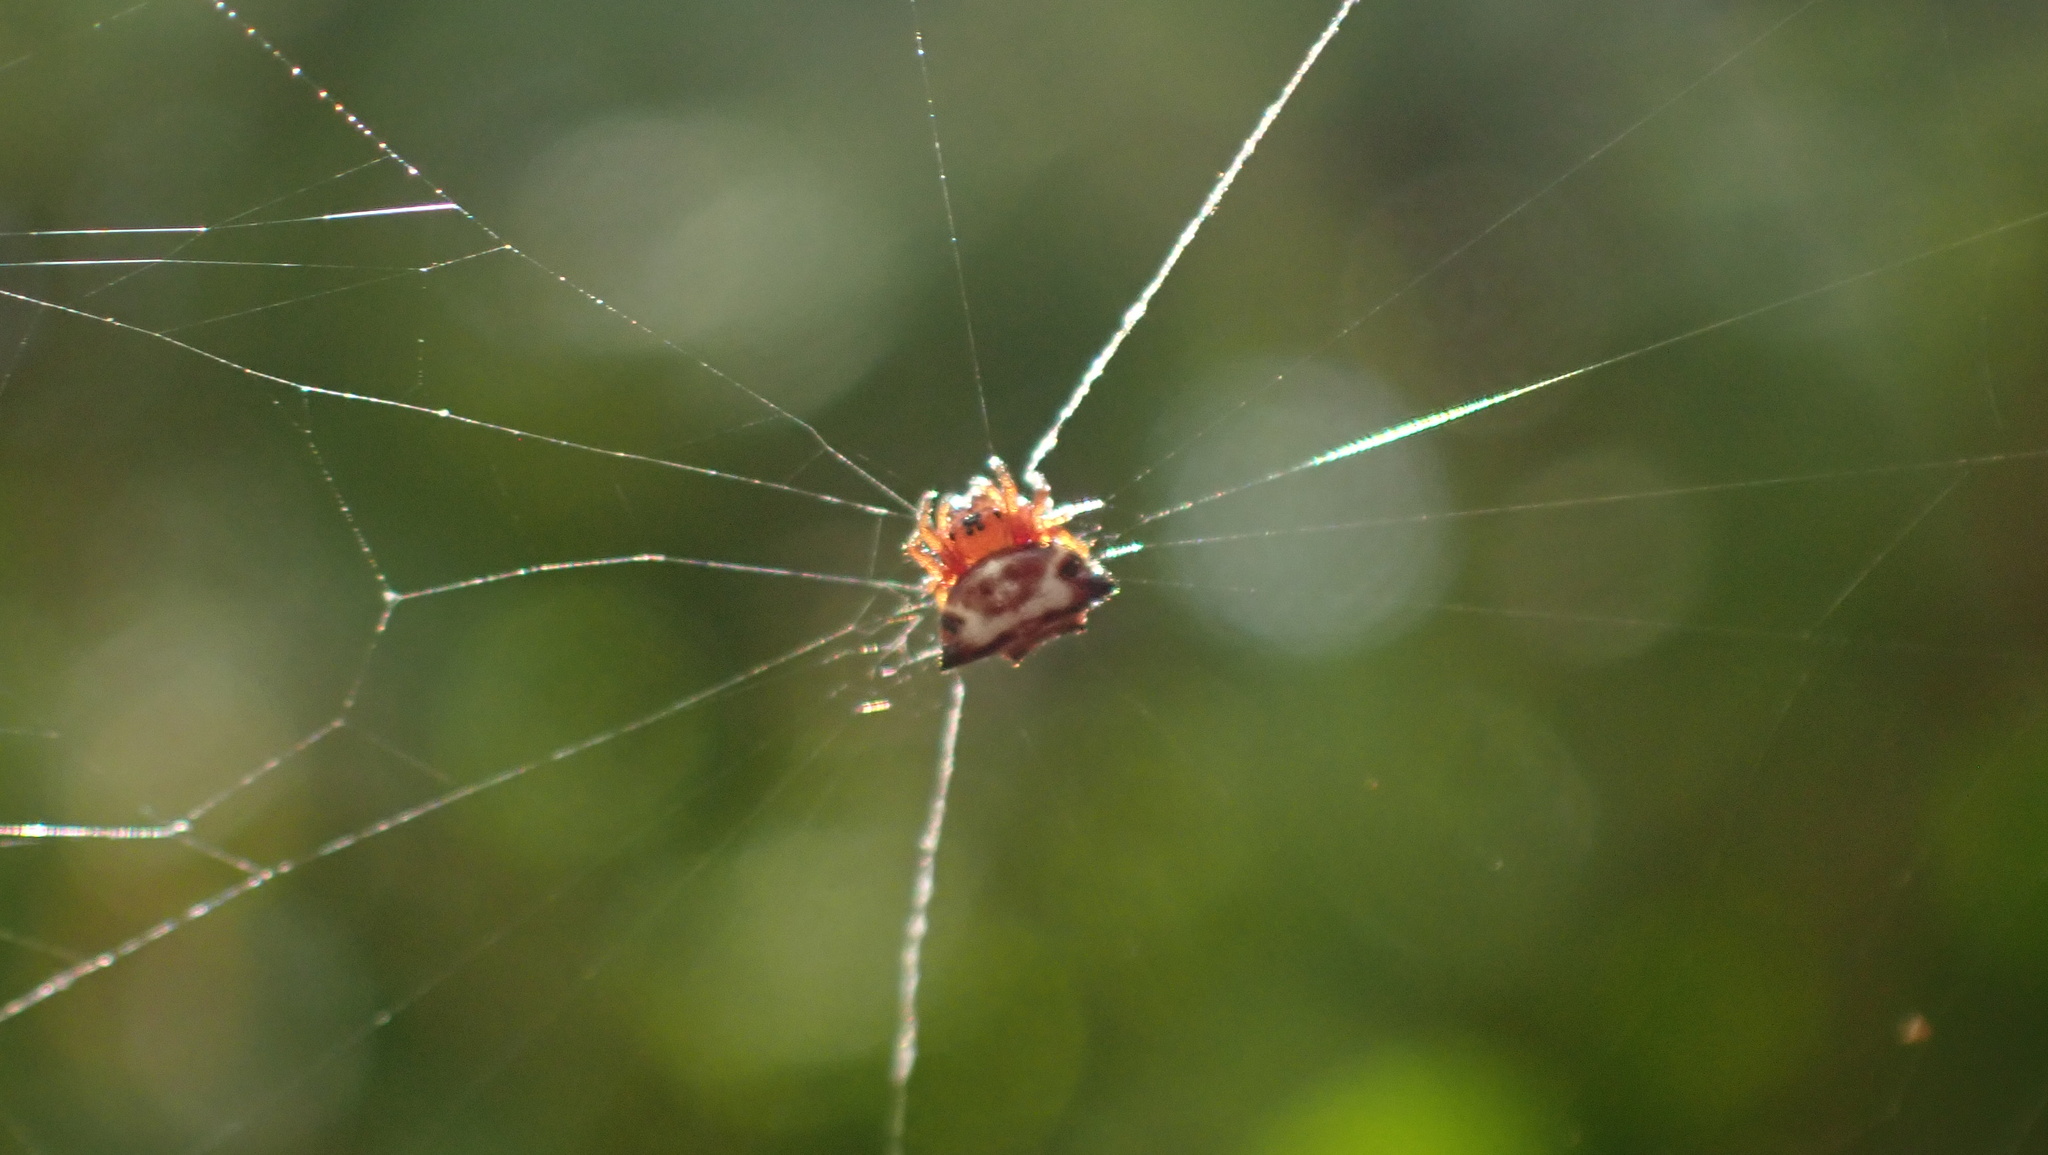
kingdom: Animalia
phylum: Arthropoda
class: Arachnida
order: Araneae
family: Araneidae
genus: Gasteracantha
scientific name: Gasteracantha cancriformis
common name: Orb weavers
